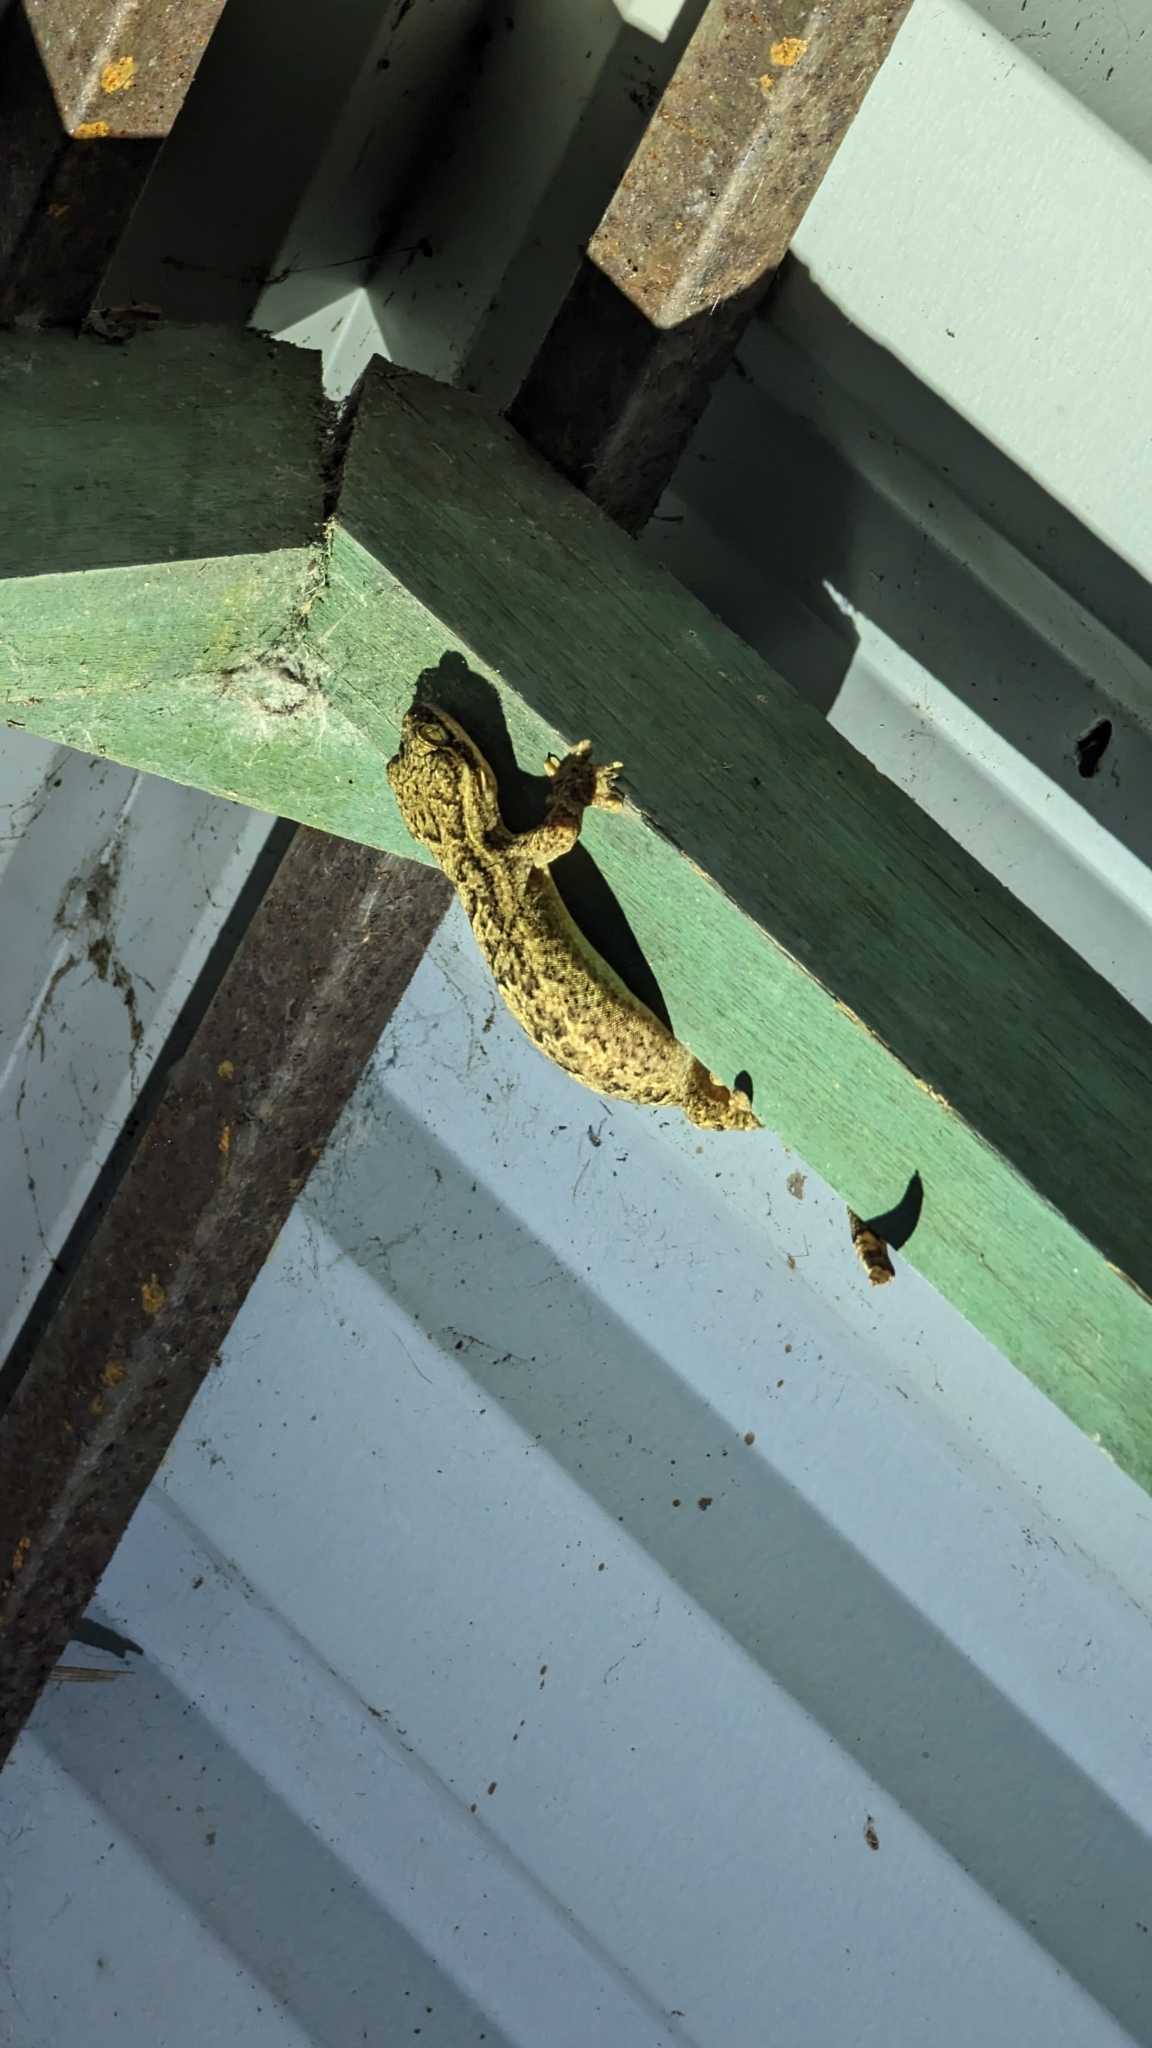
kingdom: Animalia
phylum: Chordata
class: Squamata
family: Phyllodactylidae
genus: Thecadactylus
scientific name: Thecadactylus rapicauda
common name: Turnip-tailed gecko
